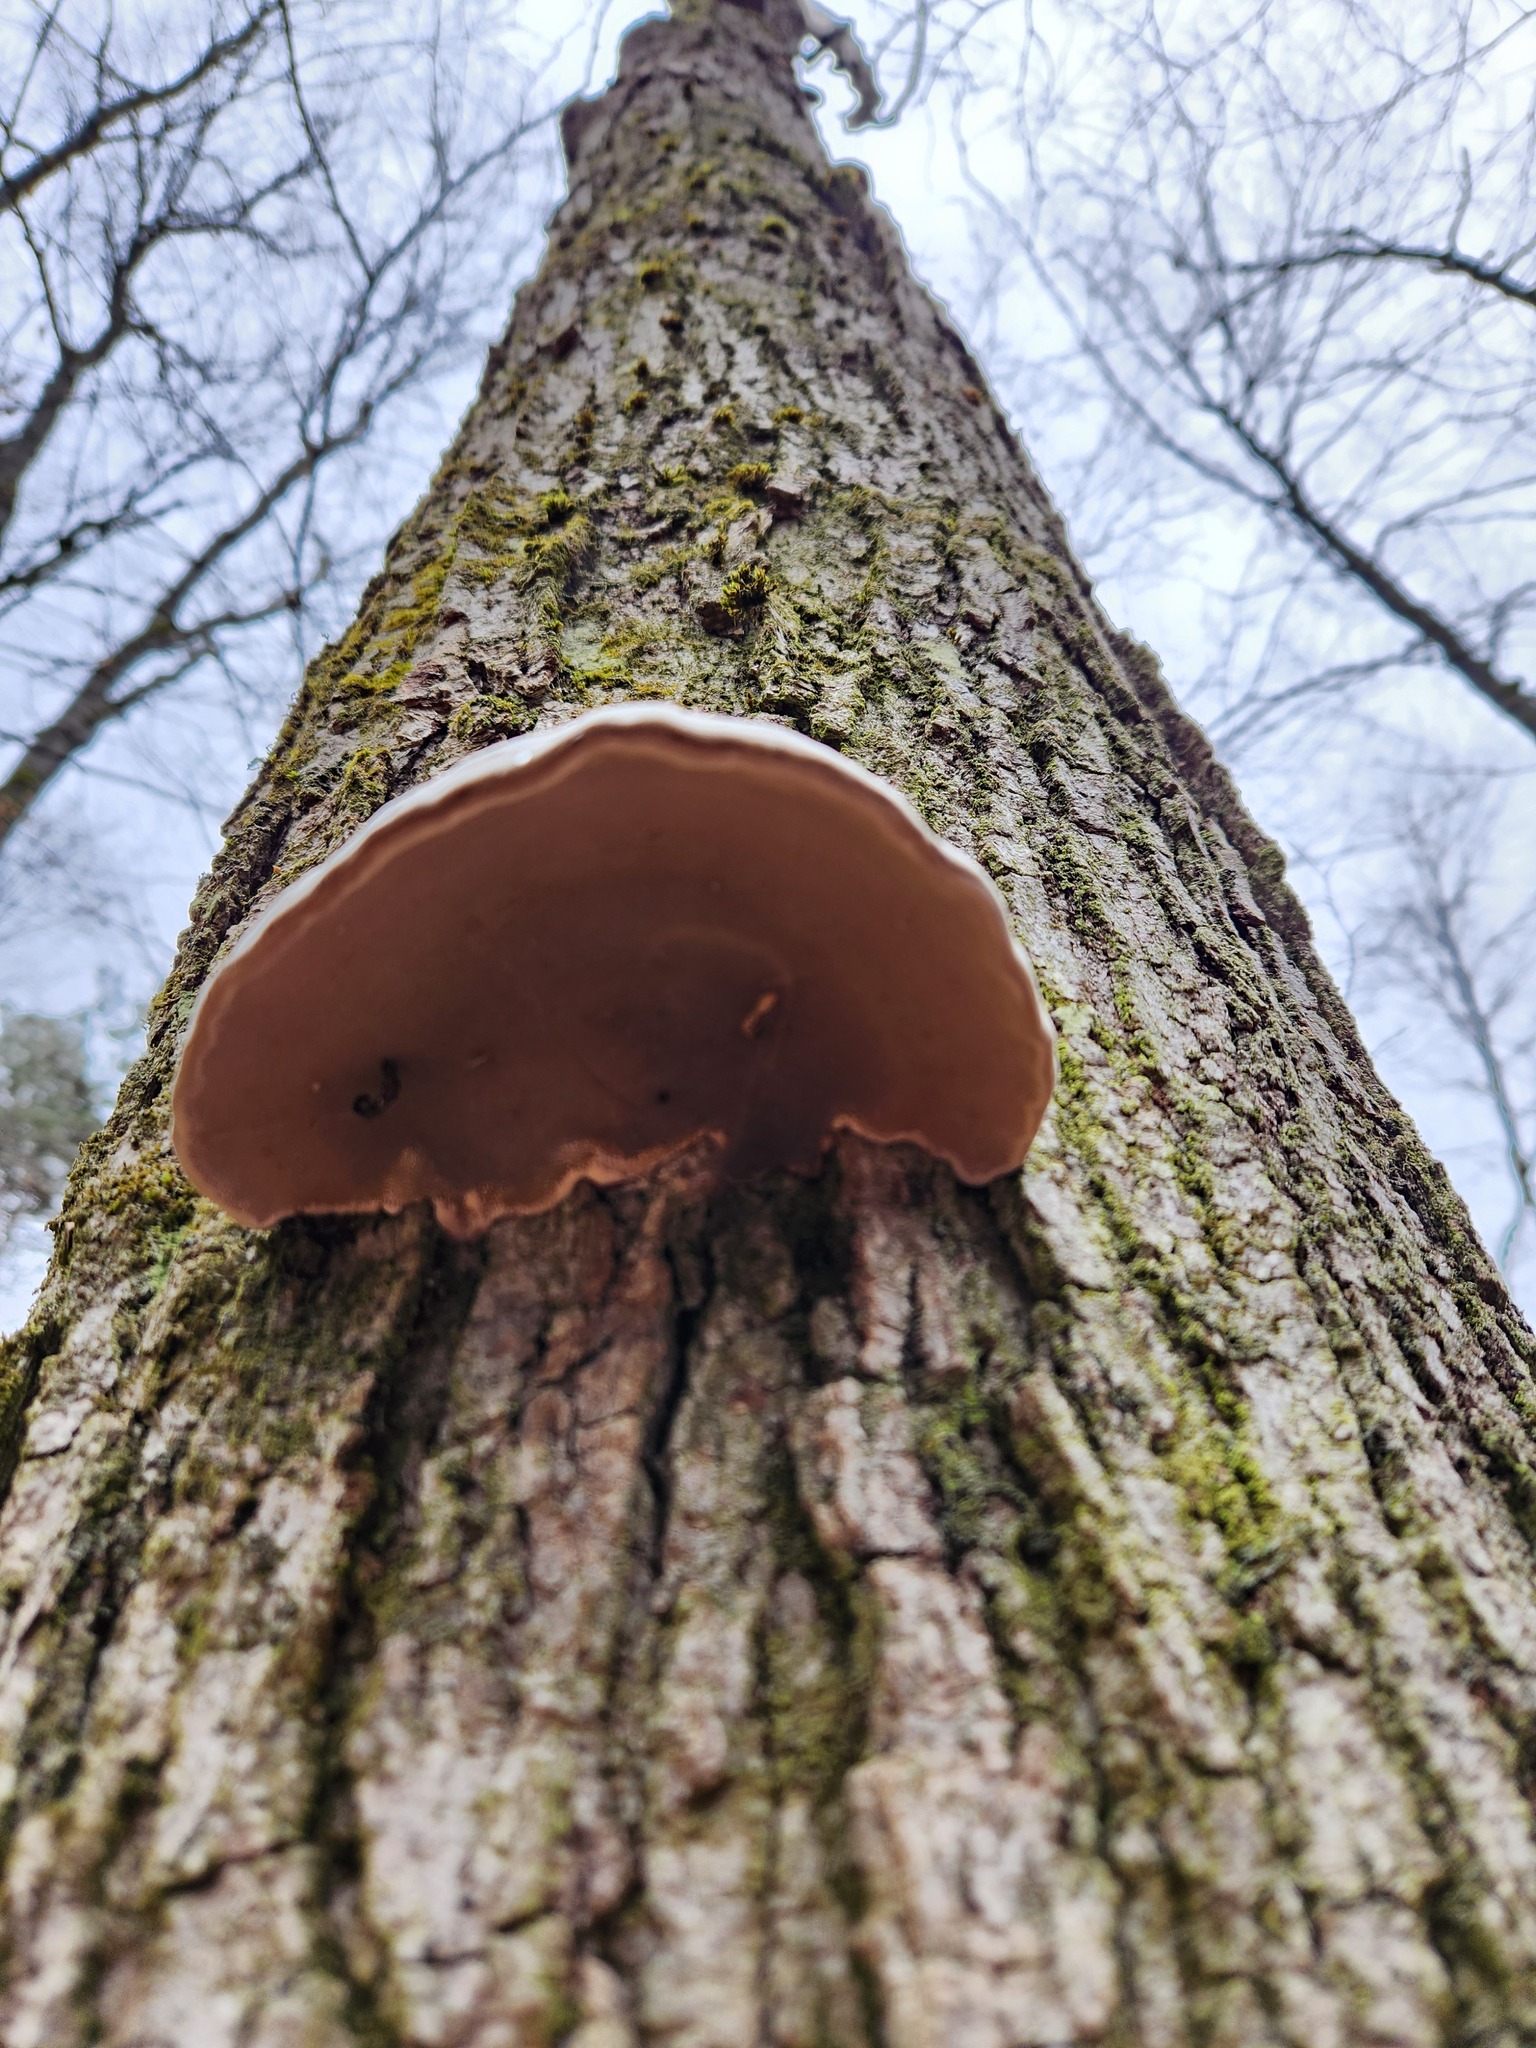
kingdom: Fungi
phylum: Basidiomycota
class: Agaricomycetes
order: Polyporales
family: Polyporaceae
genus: Fomes
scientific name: Fomes fomentarius
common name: Hoof fungus
